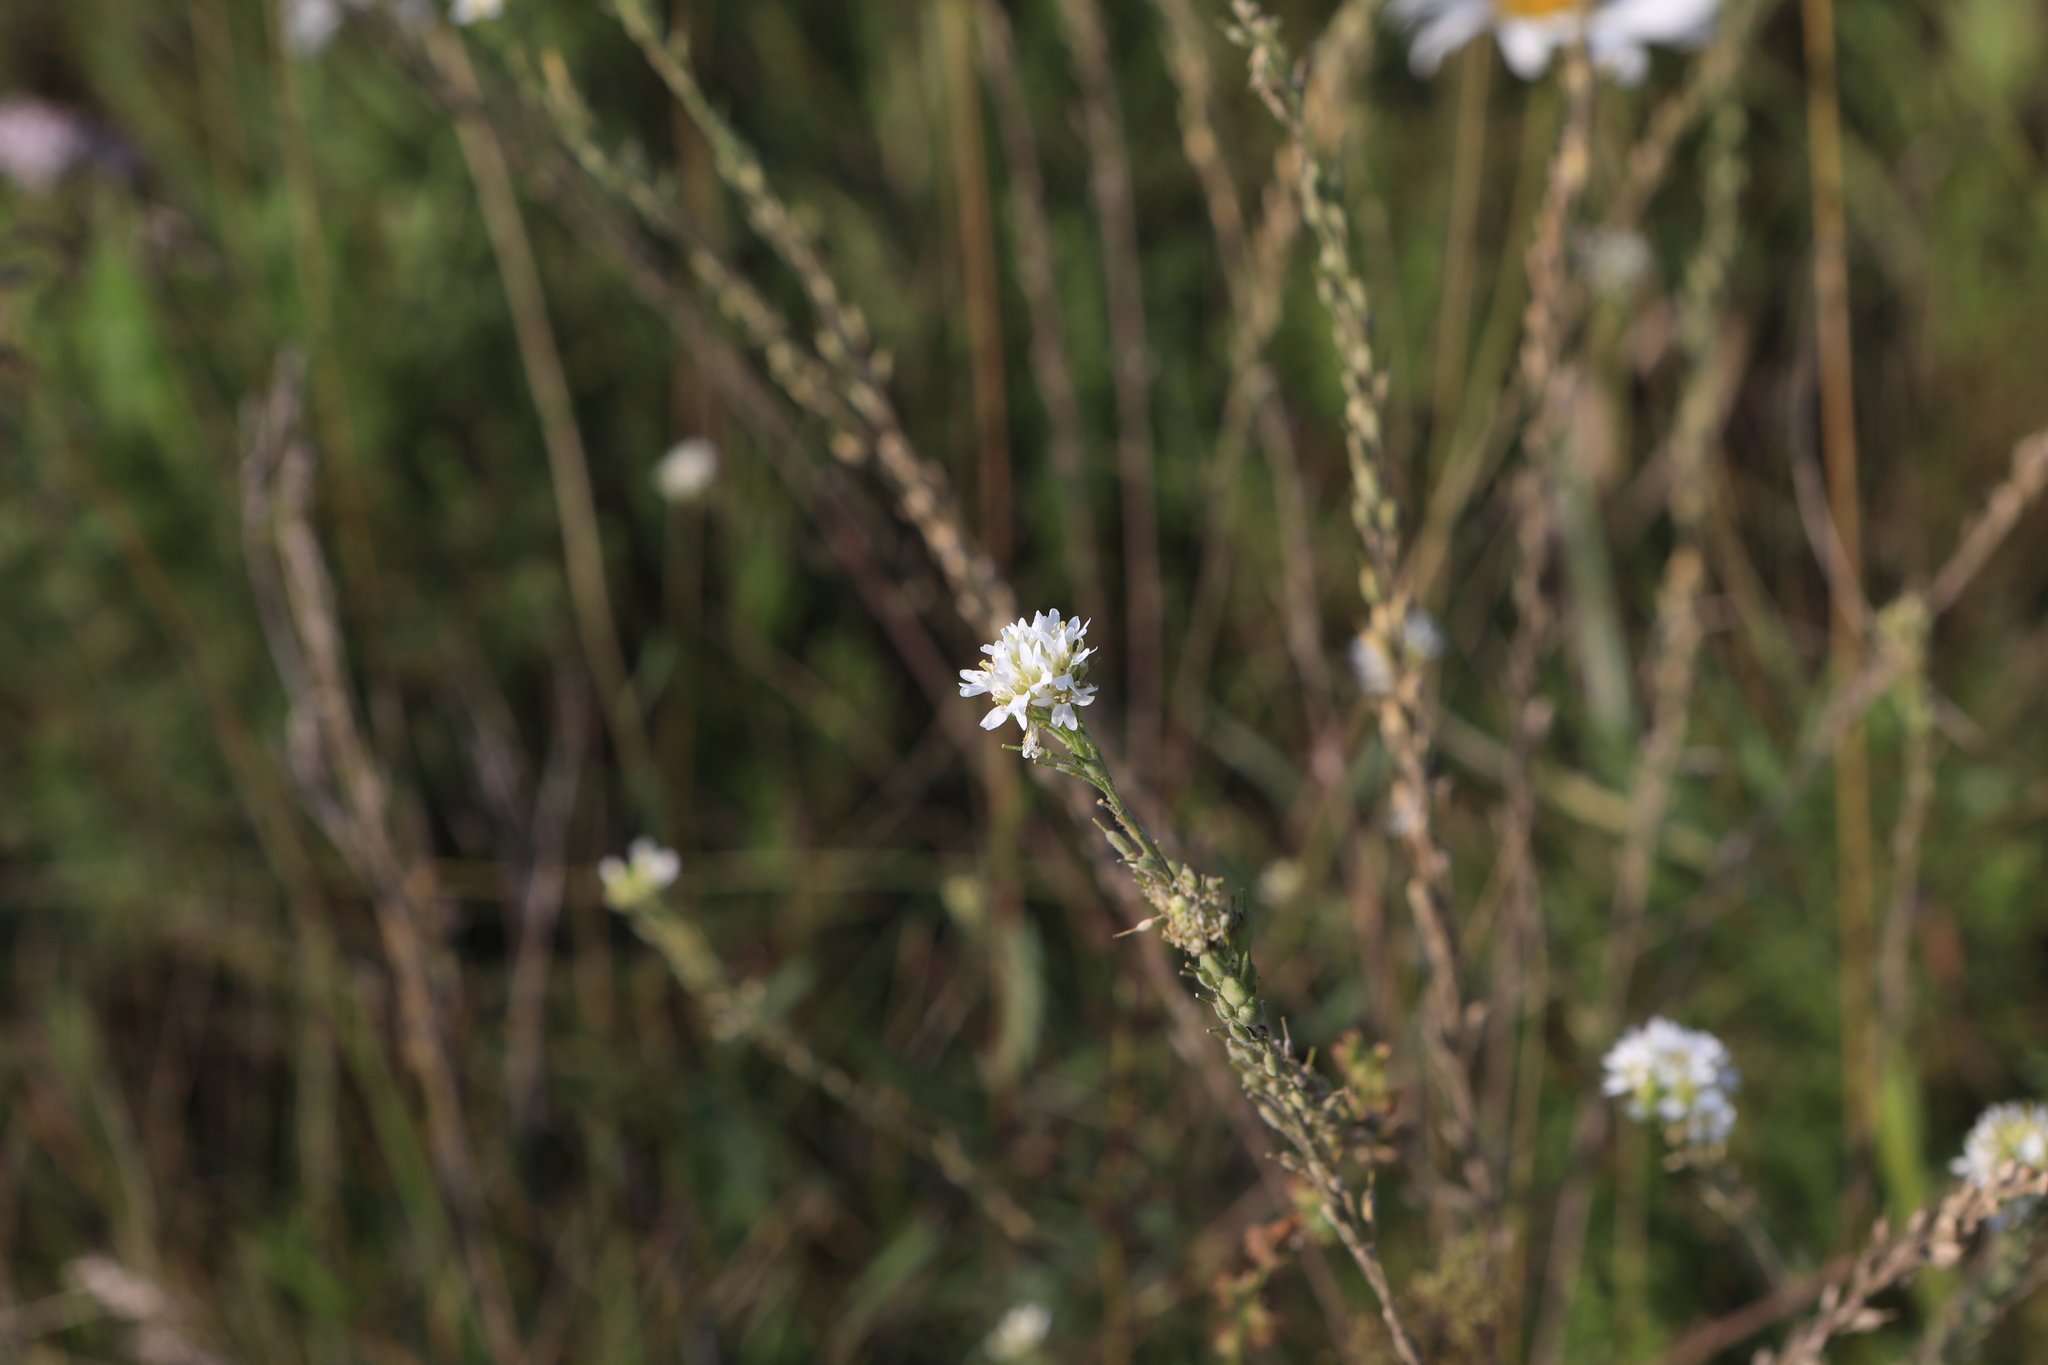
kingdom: Plantae
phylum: Tracheophyta
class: Magnoliopsida
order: Brassicales
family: Brassicaceae
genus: Berteroa
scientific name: Berteroa incana
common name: Hoary alison
